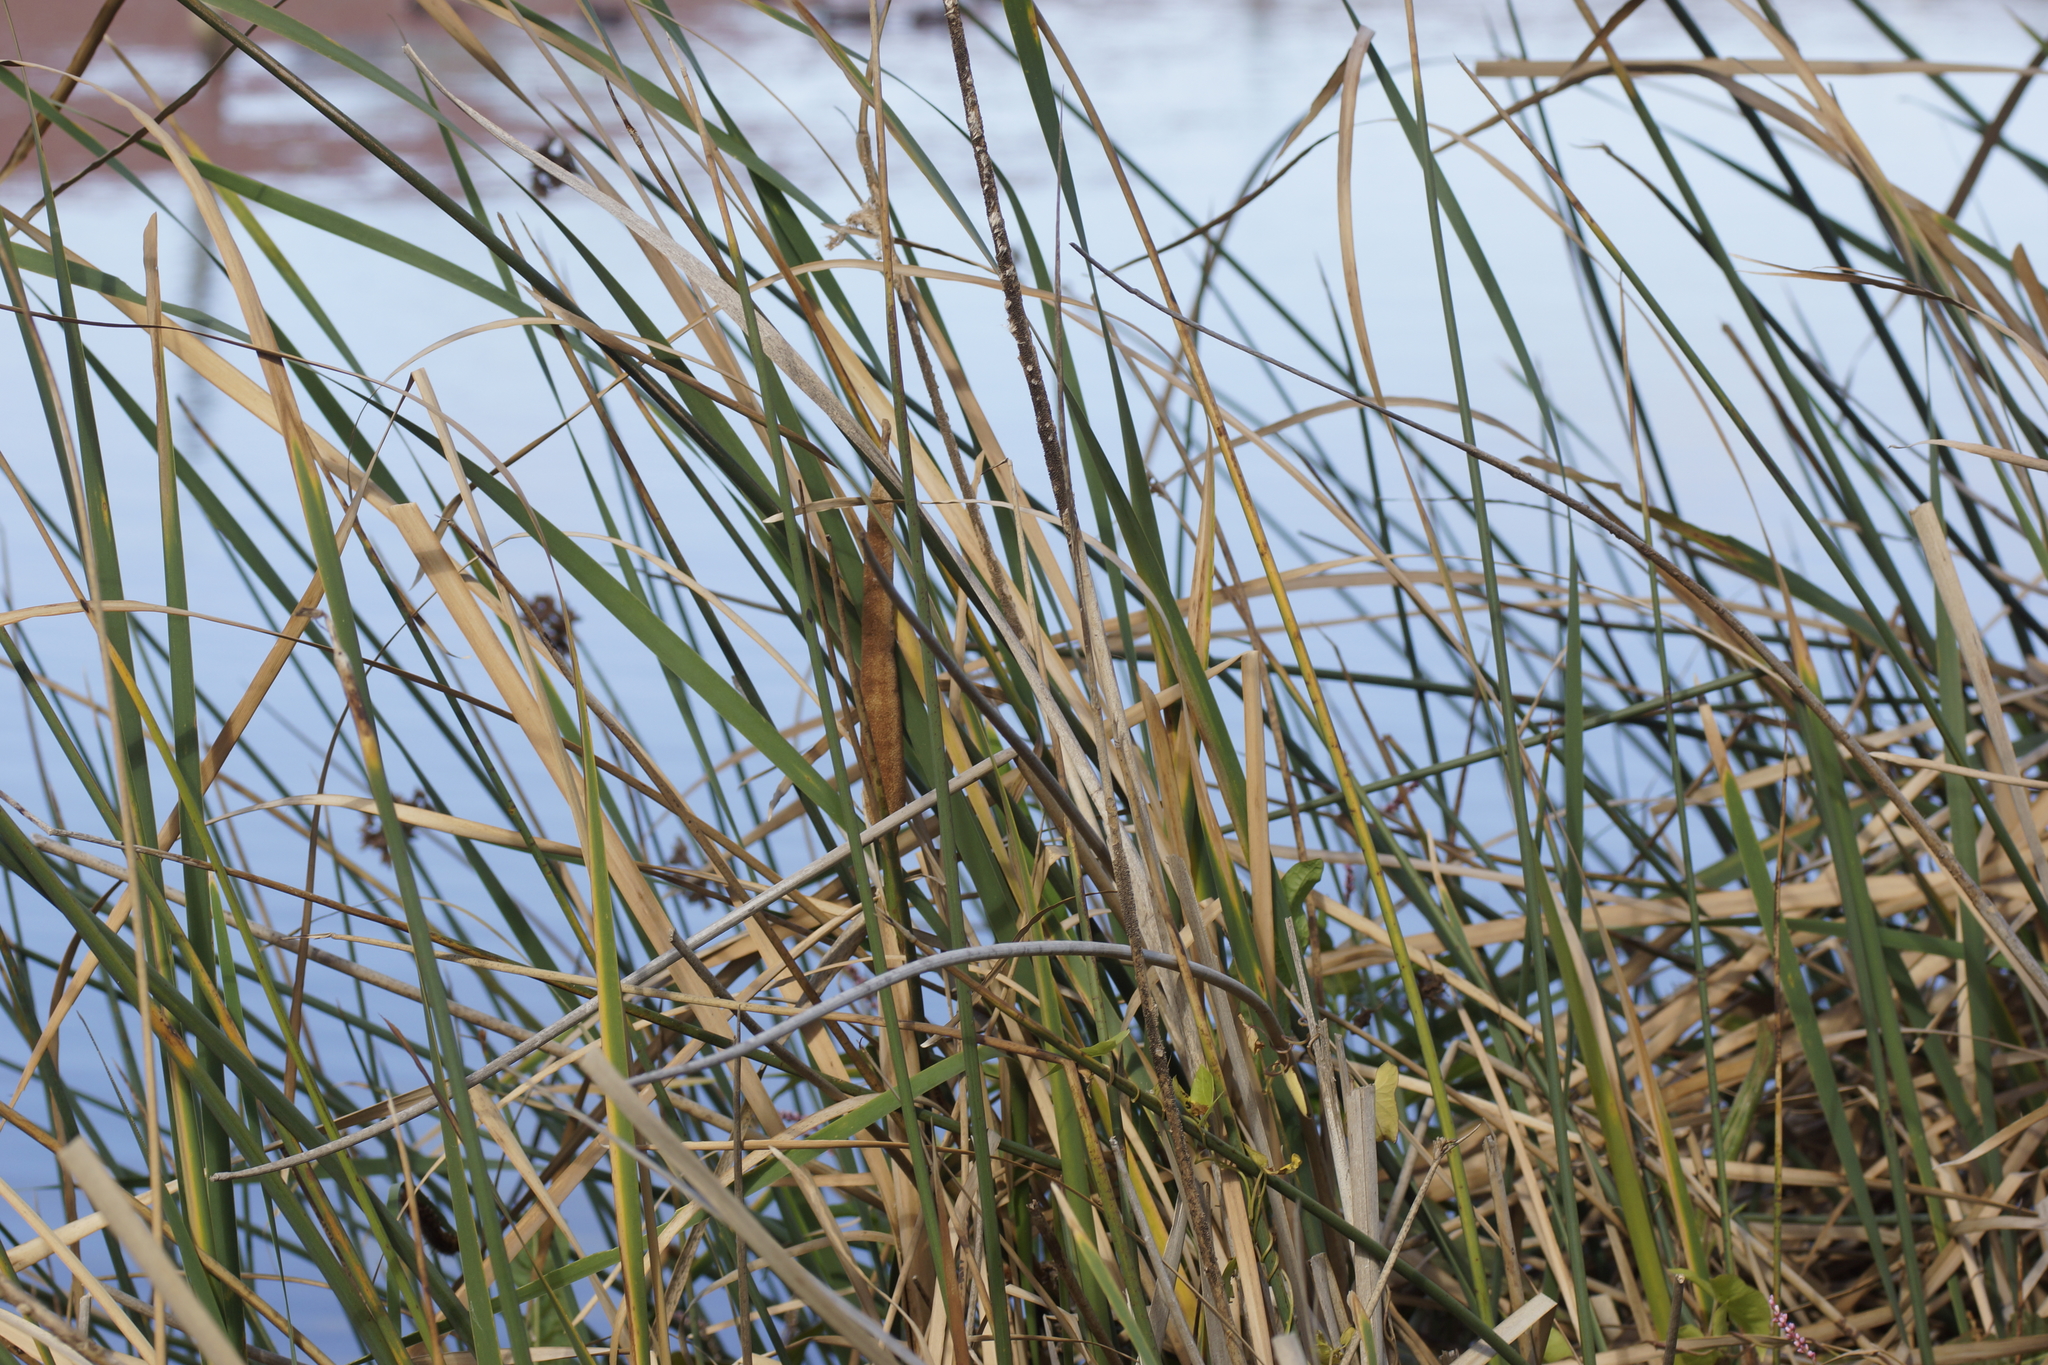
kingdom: Plantae
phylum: Tracheophyta
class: Liliopsida
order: Poales
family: Typhaceae
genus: Typha
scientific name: Typha orientalis
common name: Bullrush
